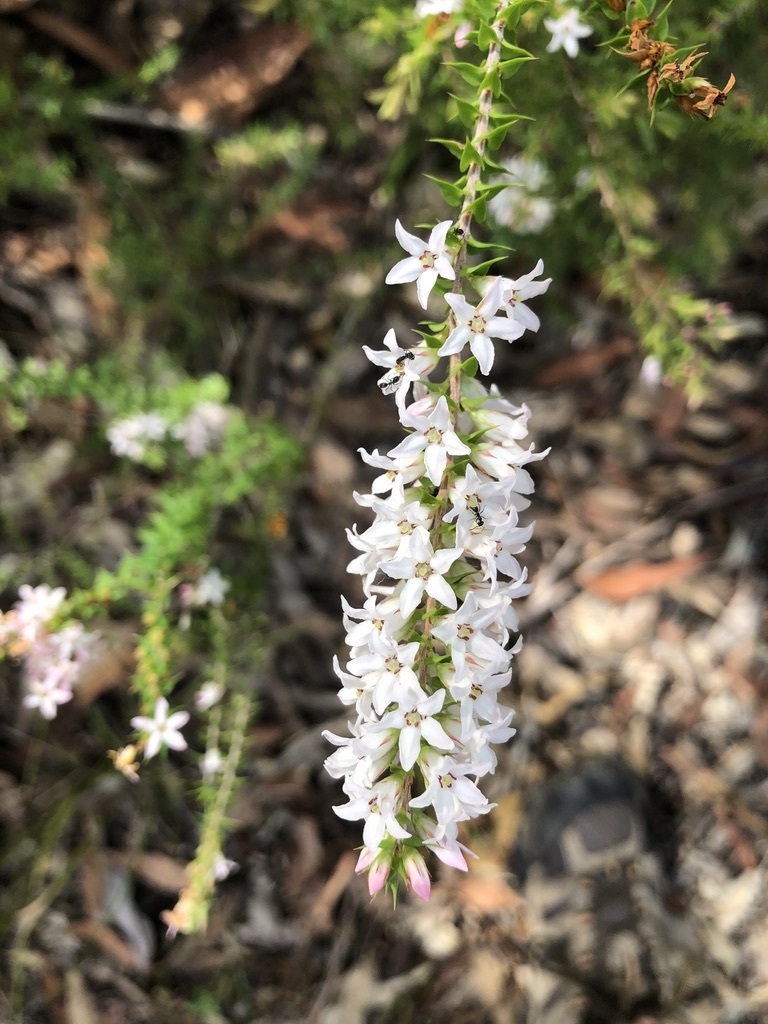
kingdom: Plantae
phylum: Tracheophyta
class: Magnoliopsida
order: Ericales
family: Ericaceae
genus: Epacris
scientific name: Epacris pulchella
